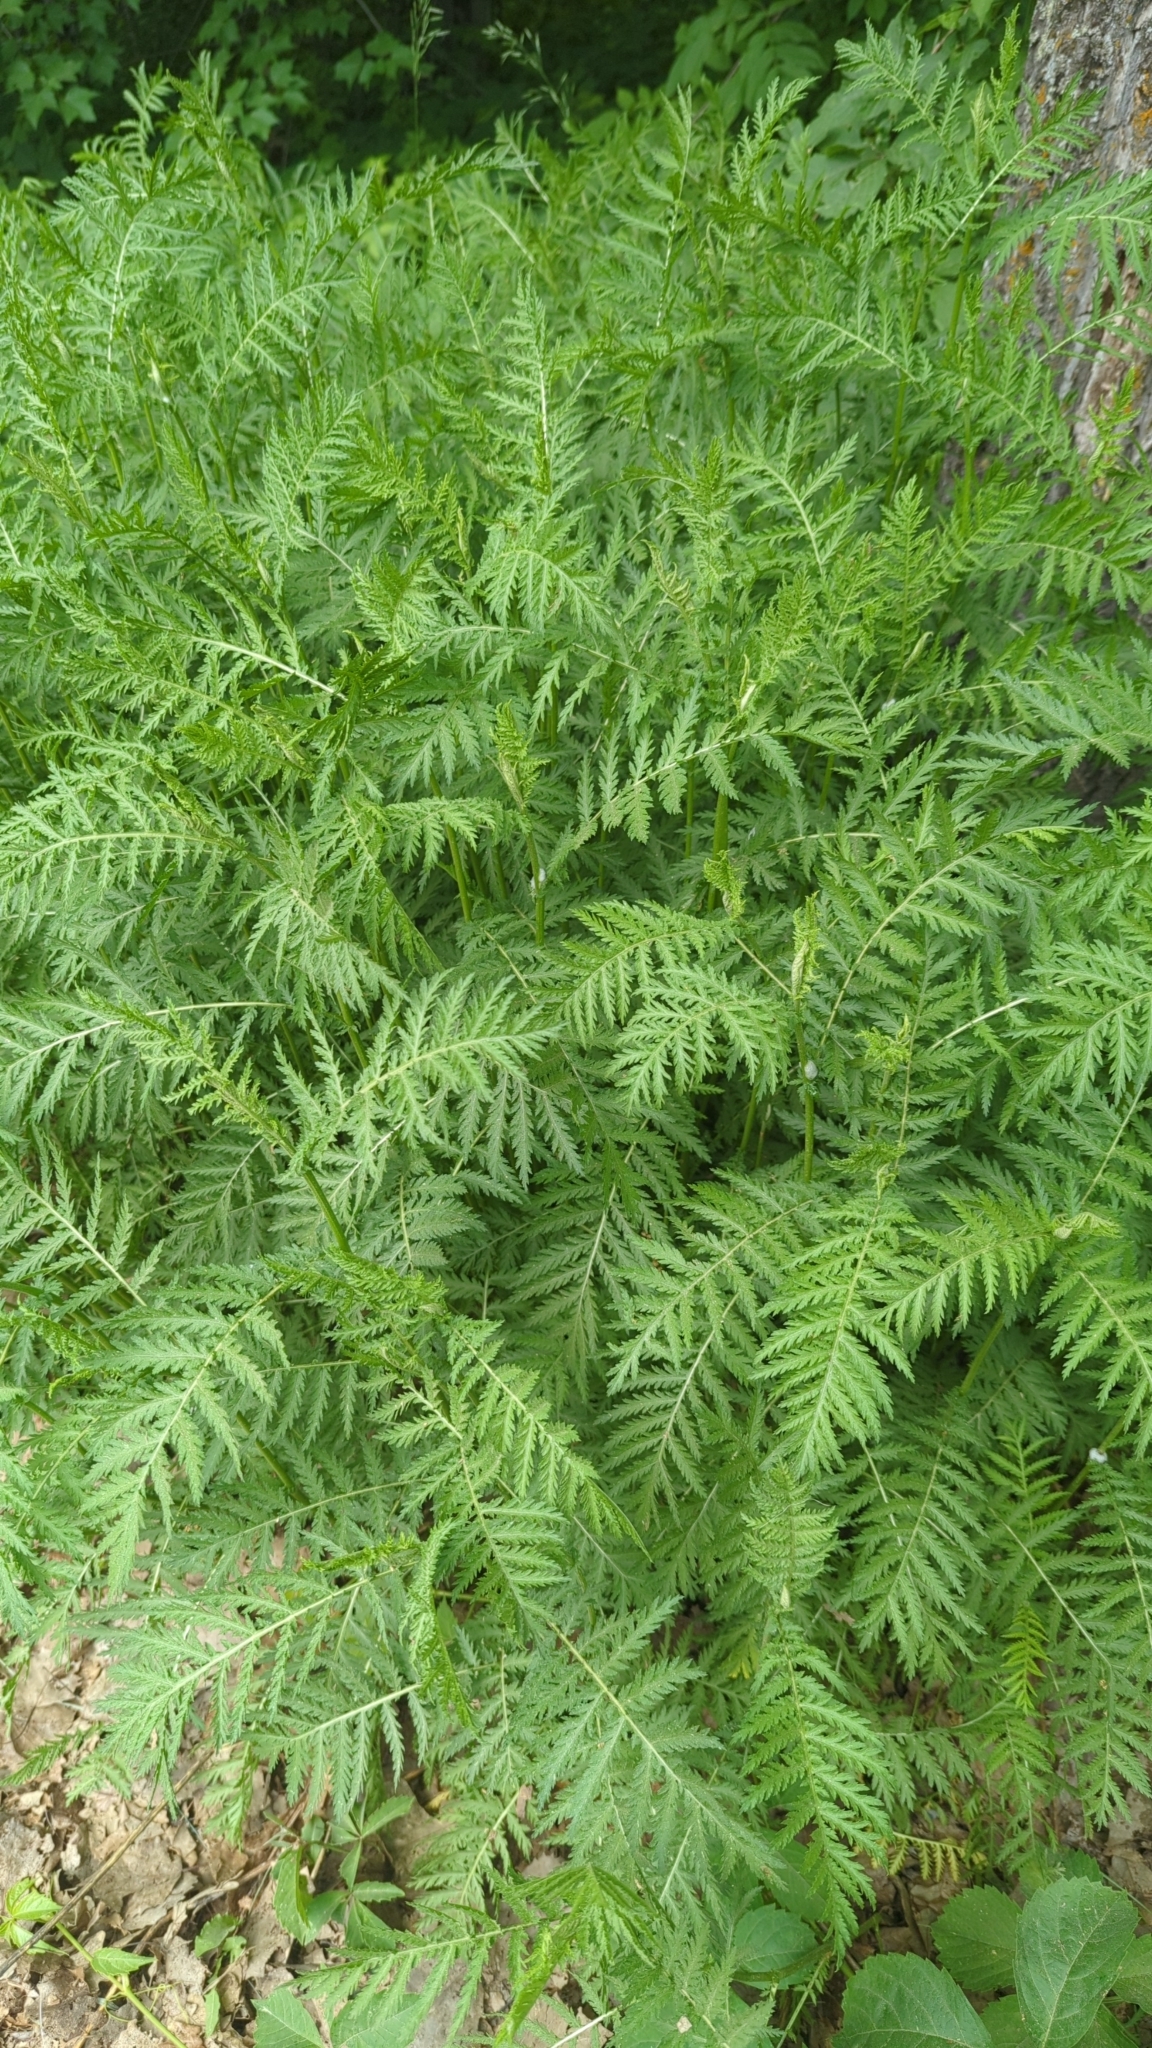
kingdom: Plantae
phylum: Tracheophyta
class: Magnoliopsida
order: Asterales
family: Asteraceae
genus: Tanacetum
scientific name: Tanacetum vulgare
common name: Common tansy
